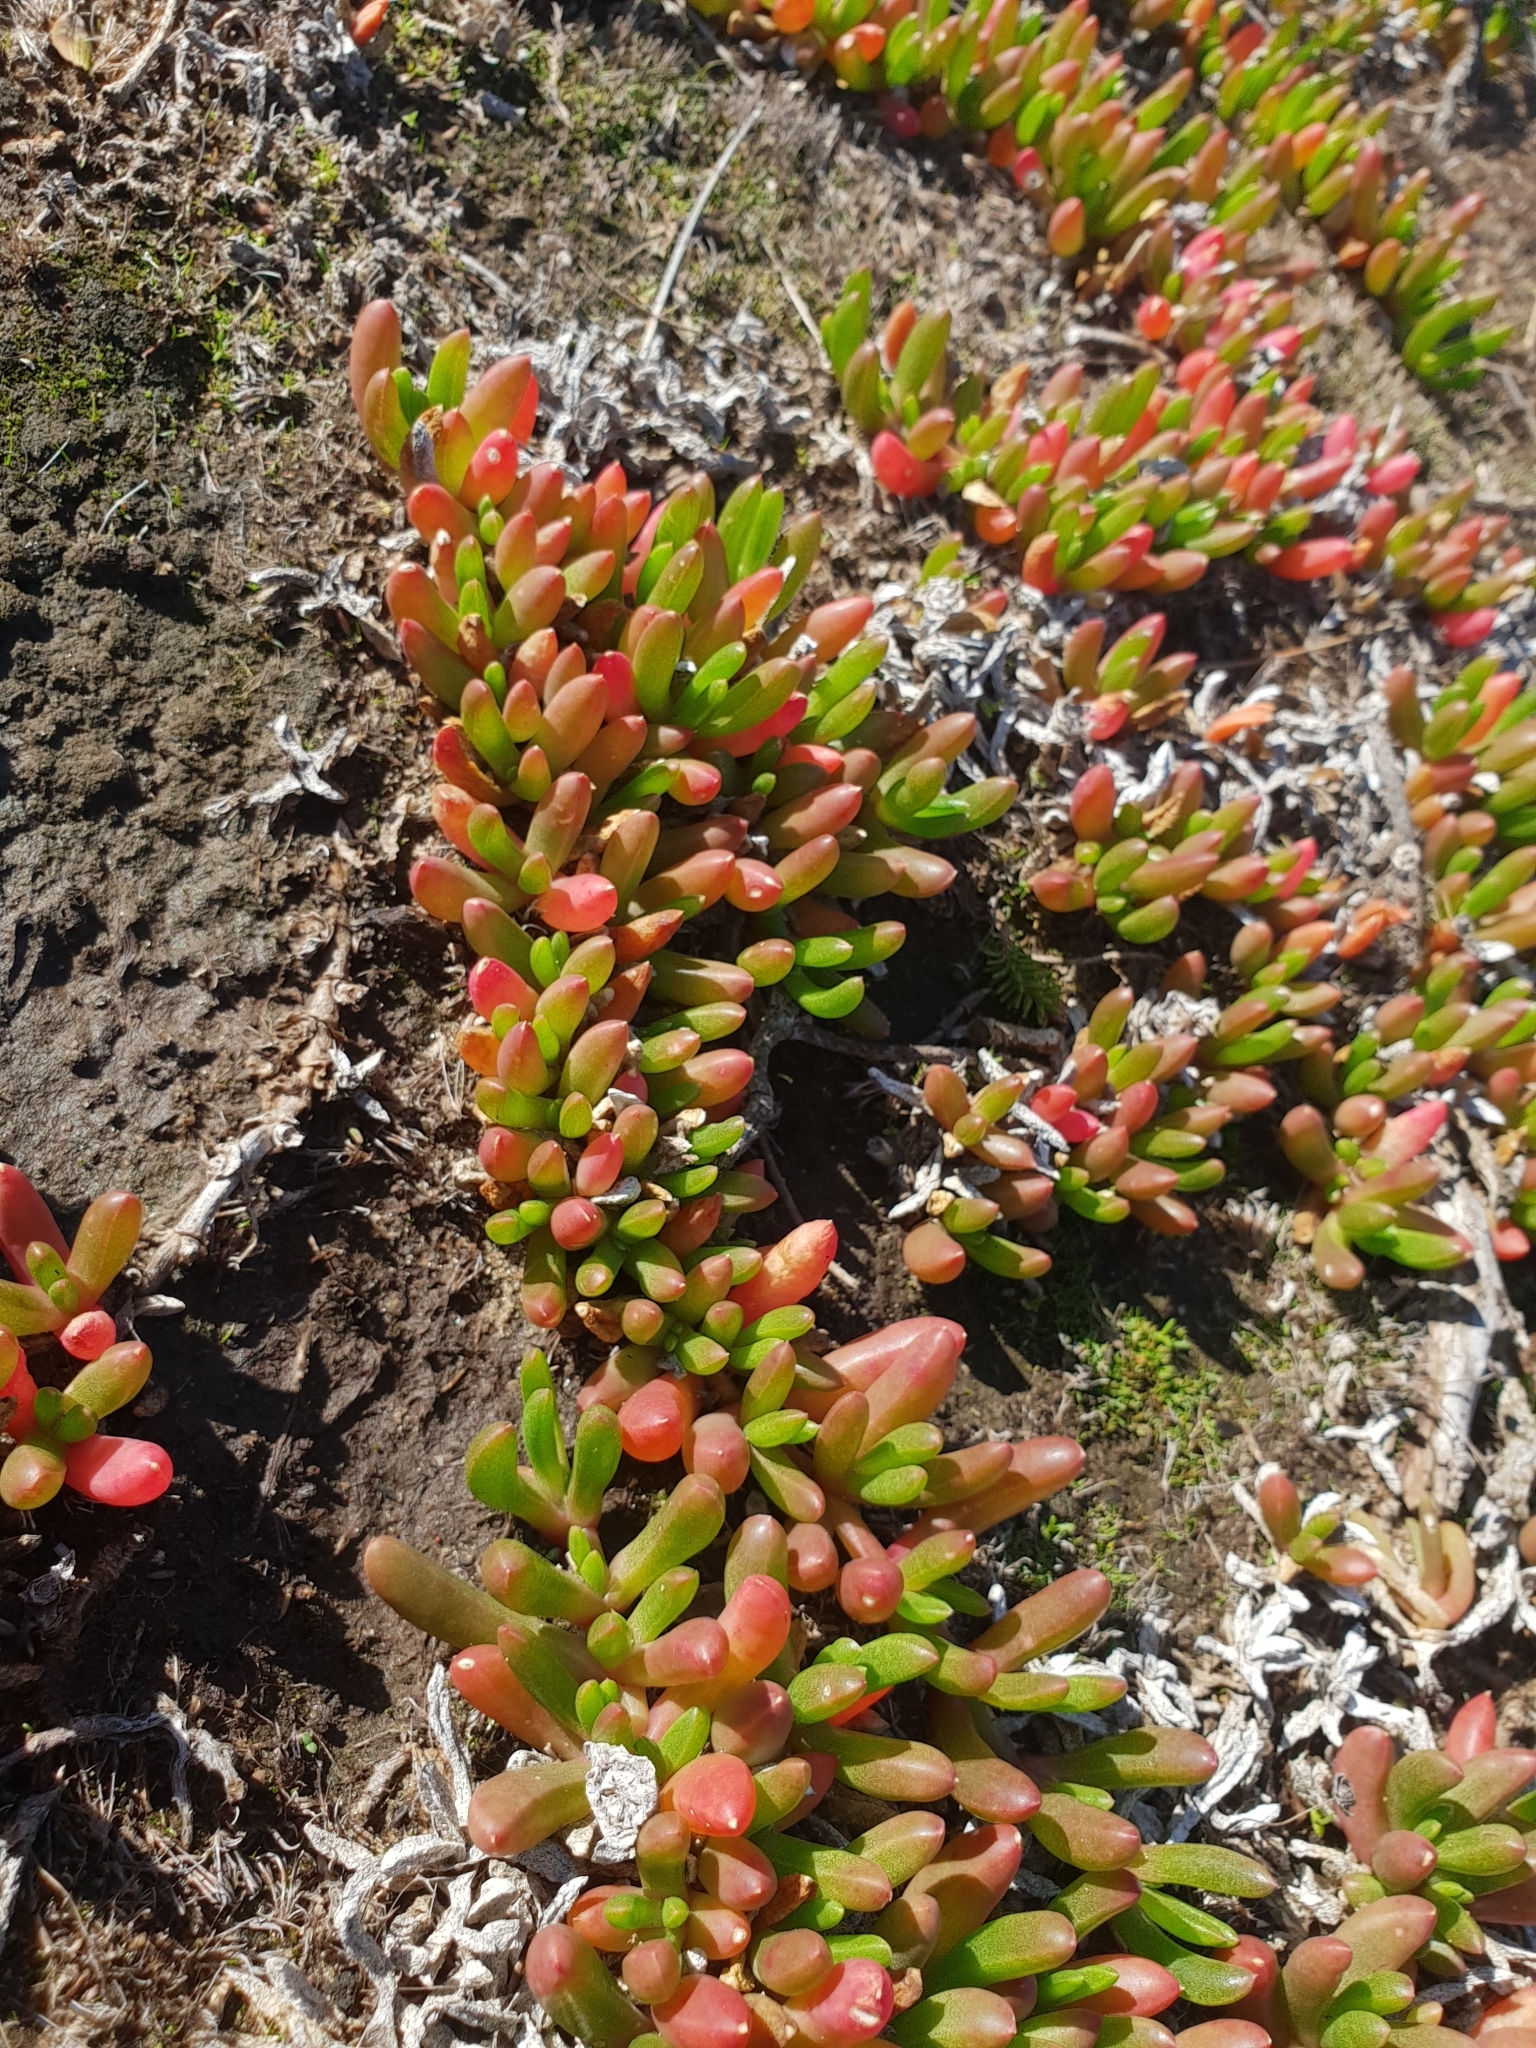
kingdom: Plantae
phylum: Tracheophyta
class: Magnoliopsida
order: Caryophyllales
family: Aizoaceae
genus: Disphyma
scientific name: Disphyma crassifolium
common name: Purple dewplant
